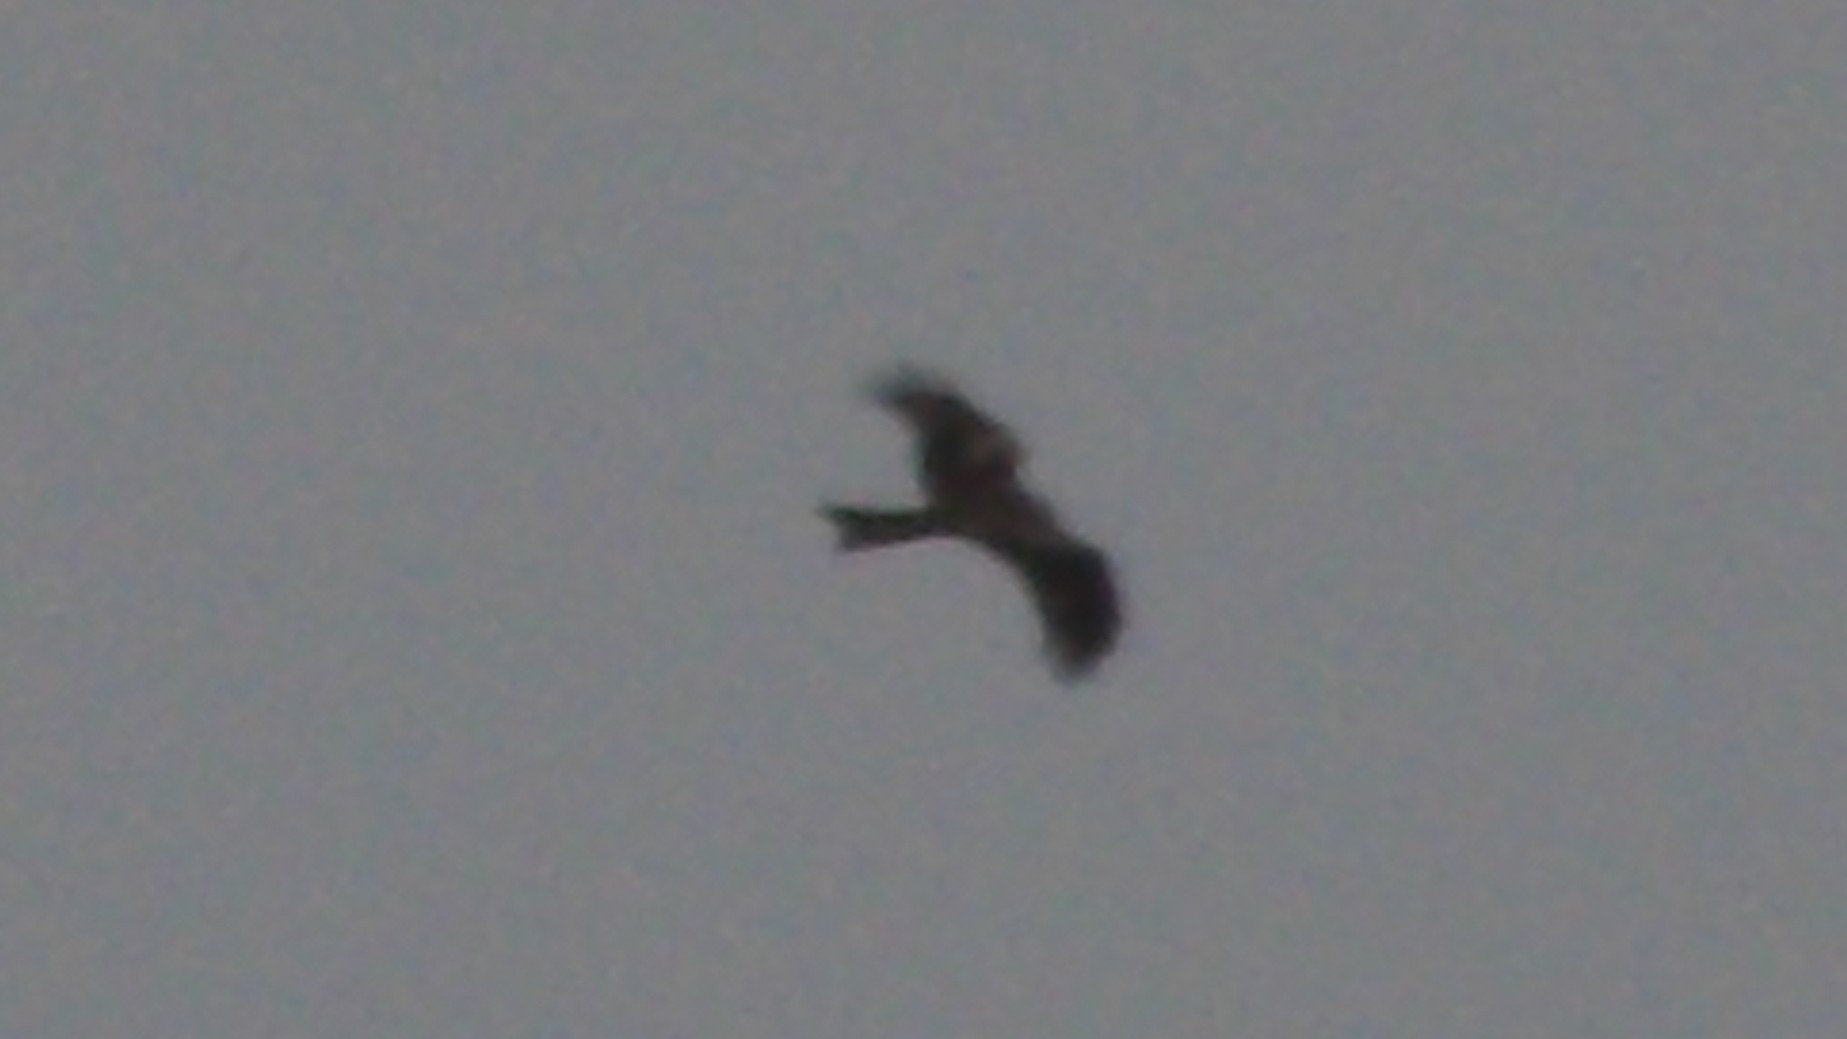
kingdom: Animalia
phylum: Chordata
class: Aves
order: Accipitriformes
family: Accipitridae
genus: Milvus
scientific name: Milvus migrans
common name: Black kite
